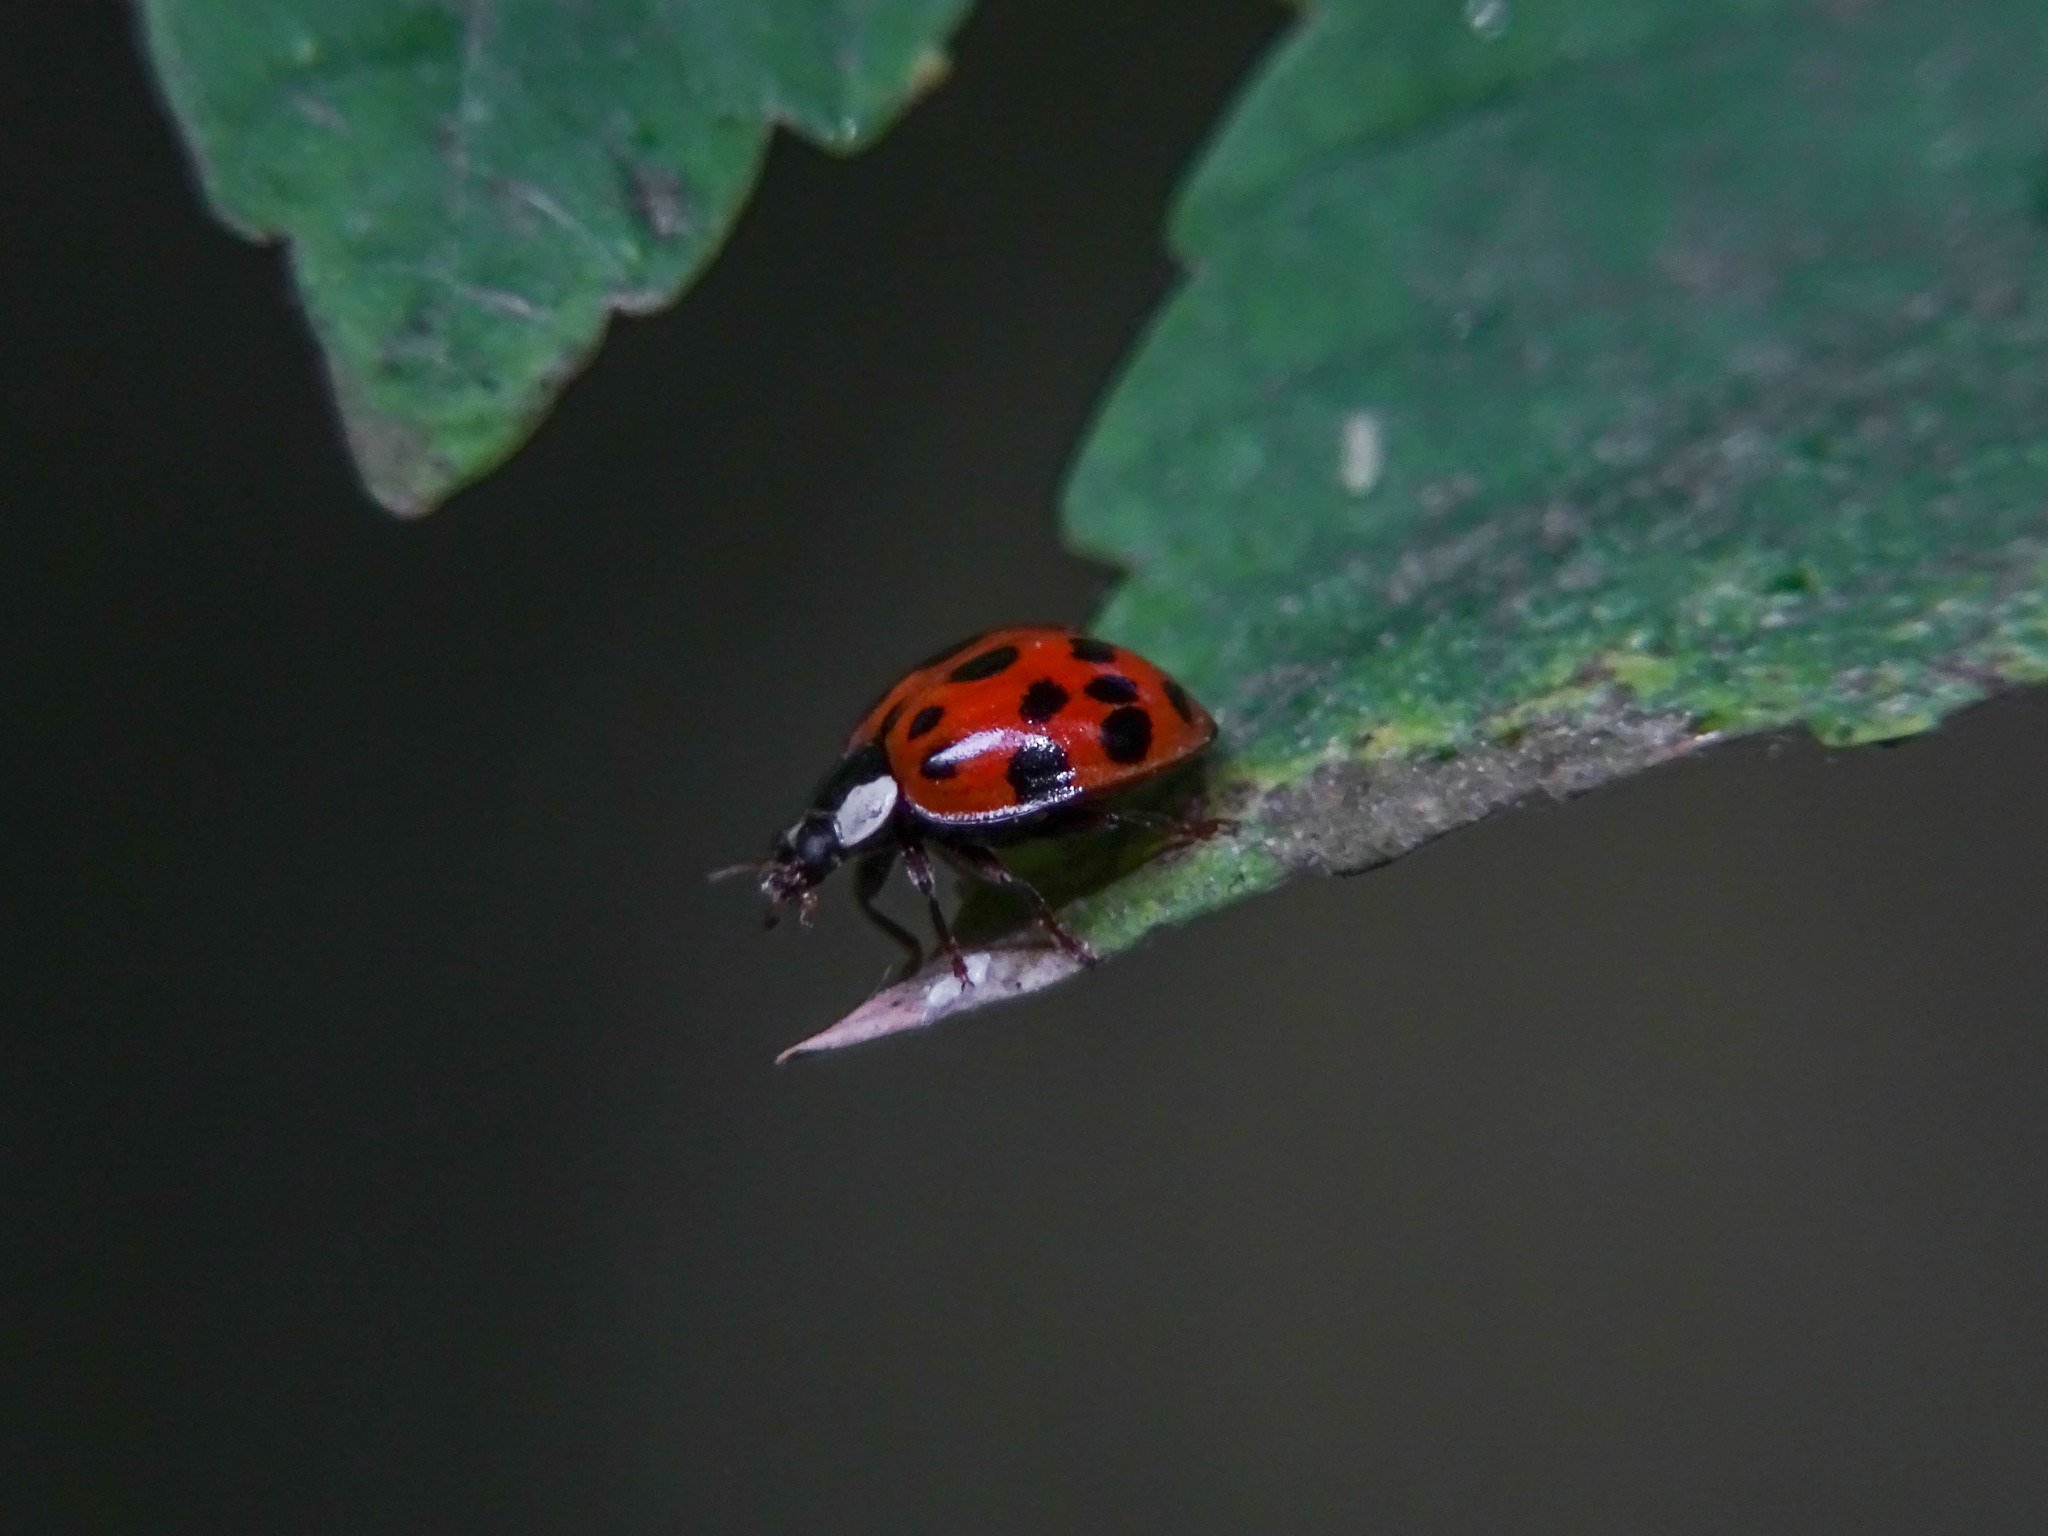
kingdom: Animalia
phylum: Arthropoda
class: Insecta
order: Coleoptera
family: Coccinellidae
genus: Harmonia
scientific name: Harmonia axyridis
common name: Harlequin ladybird
